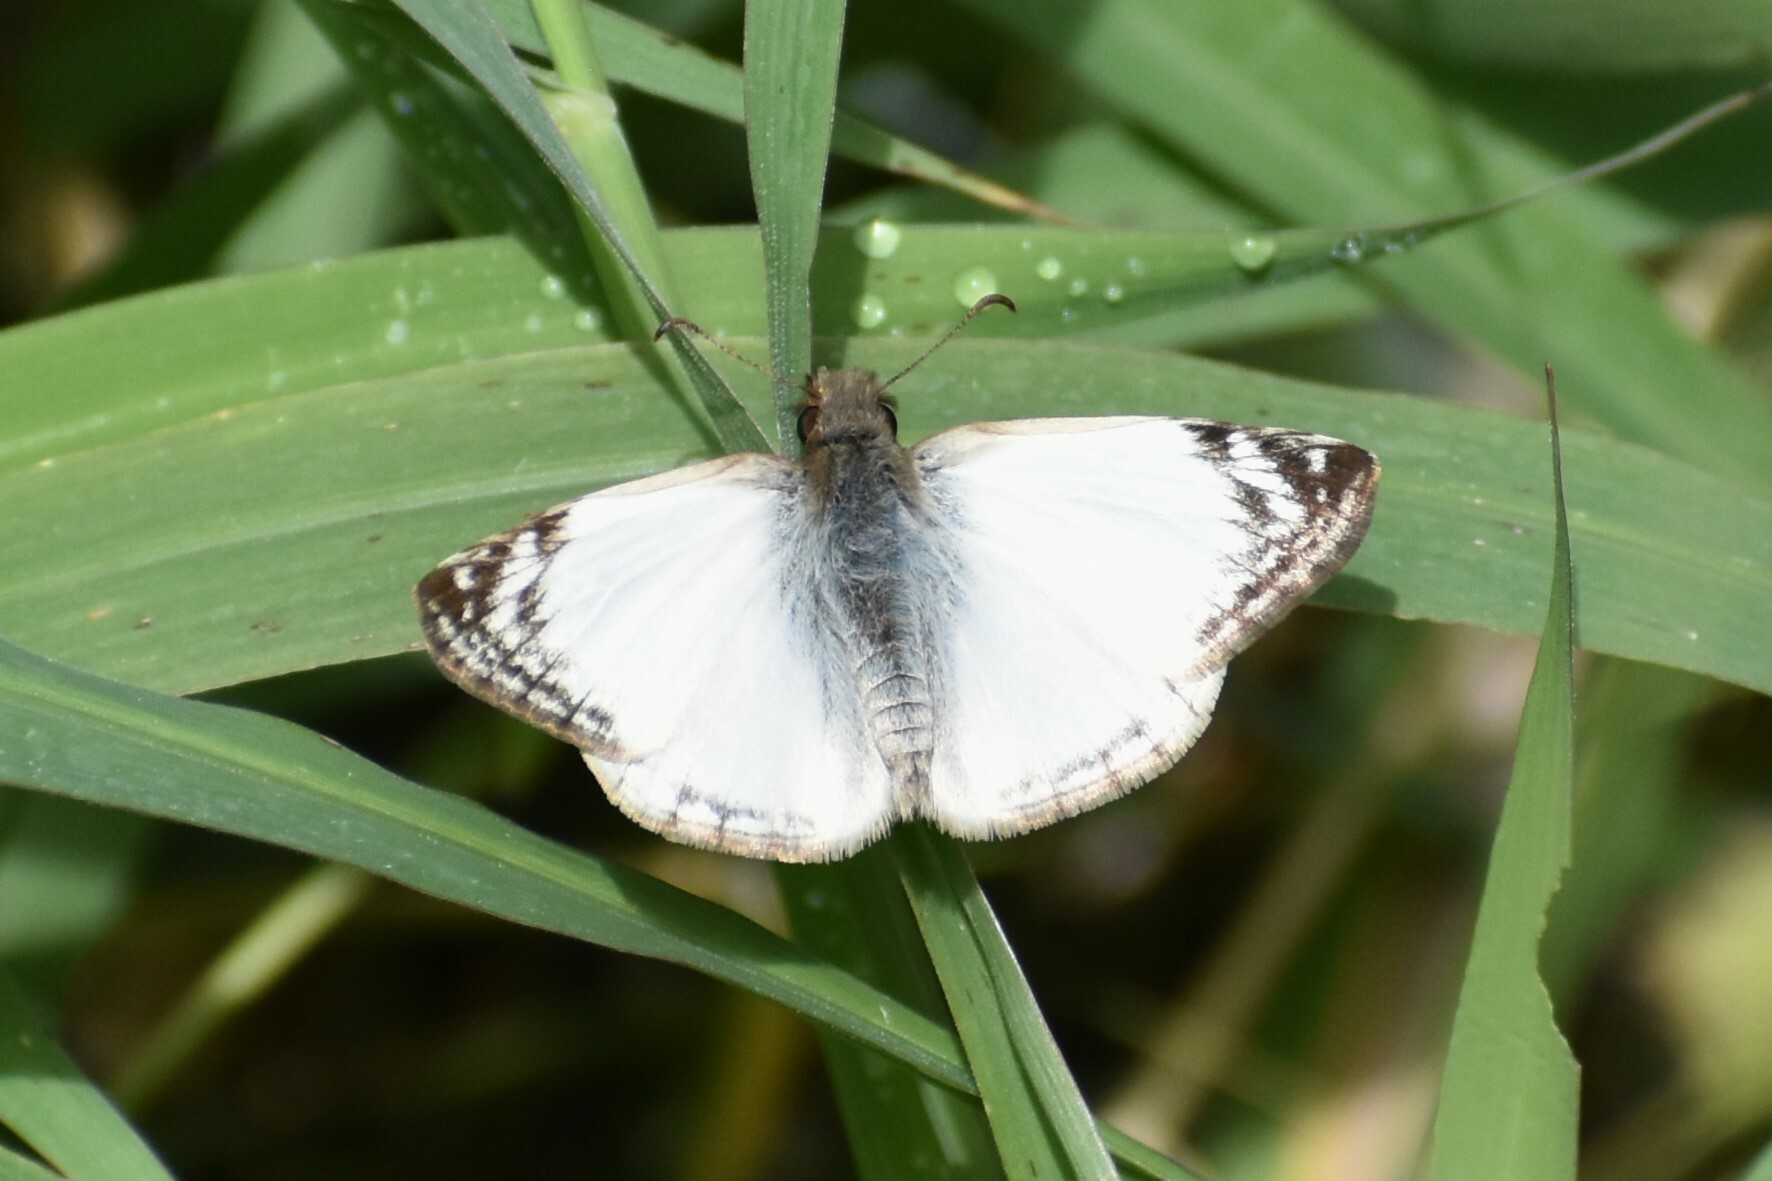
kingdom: Animalia
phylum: Arthropoda
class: Insecta
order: Lepidoptera
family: Hesperiidae
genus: Heliopetes
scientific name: Heliopetes laviana
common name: Laviana white-skipper
